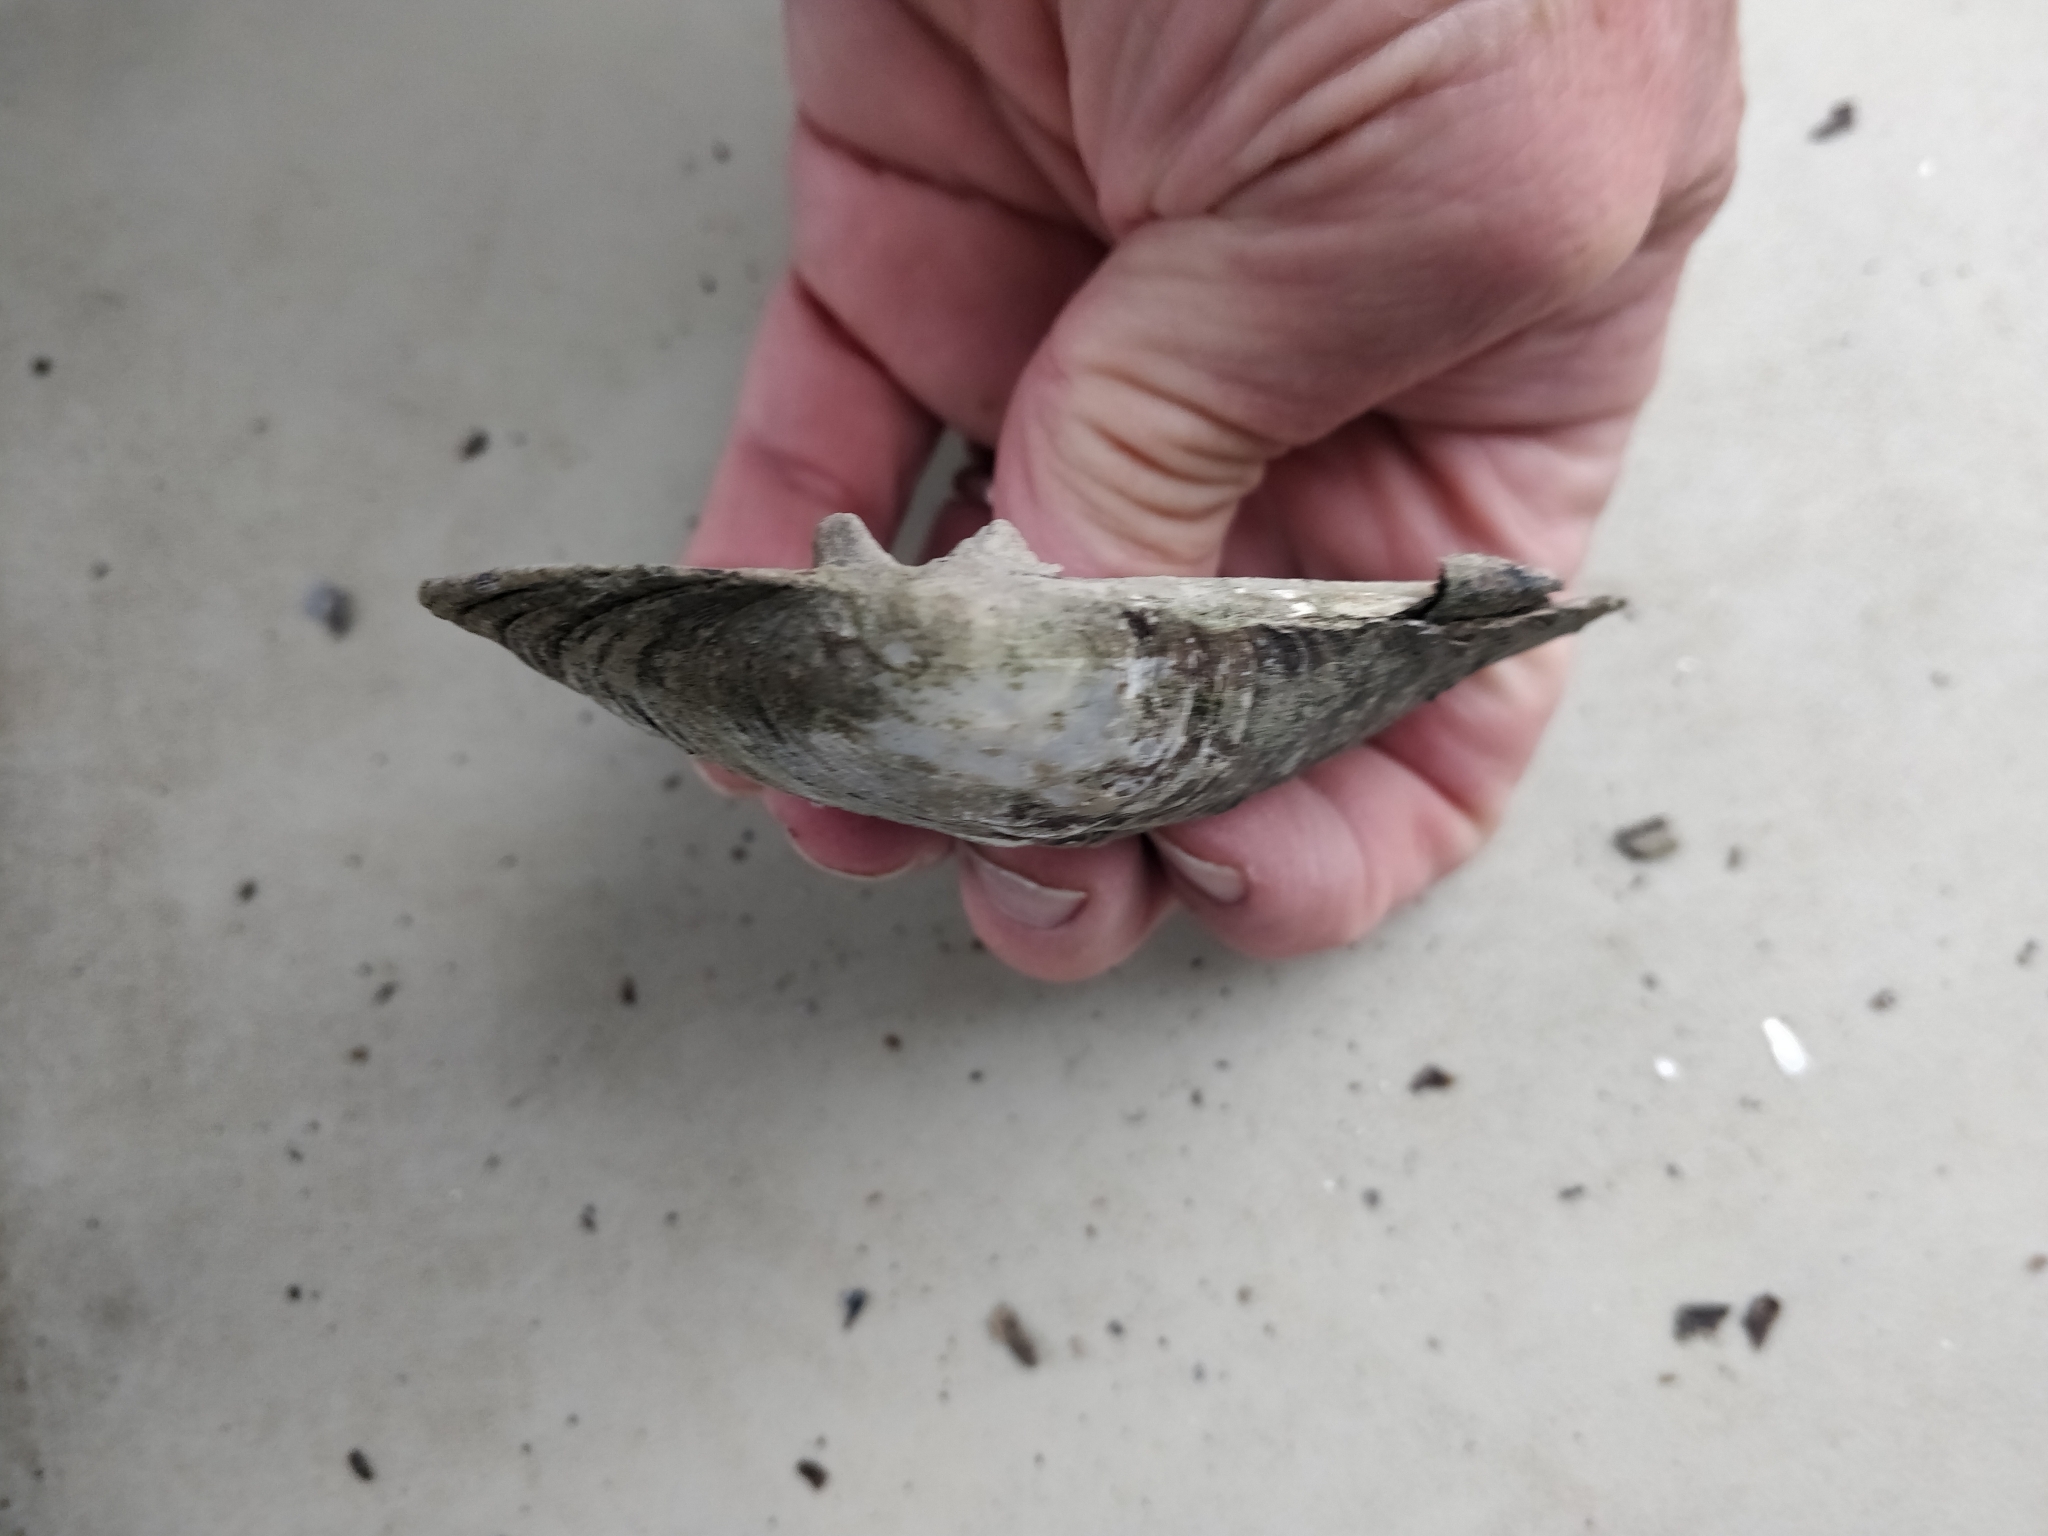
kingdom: Animalia
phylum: Mollusca
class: Bivalvia
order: Unionida
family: Unionidae
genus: Amblema
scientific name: Amblema plicata
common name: Threeridge
